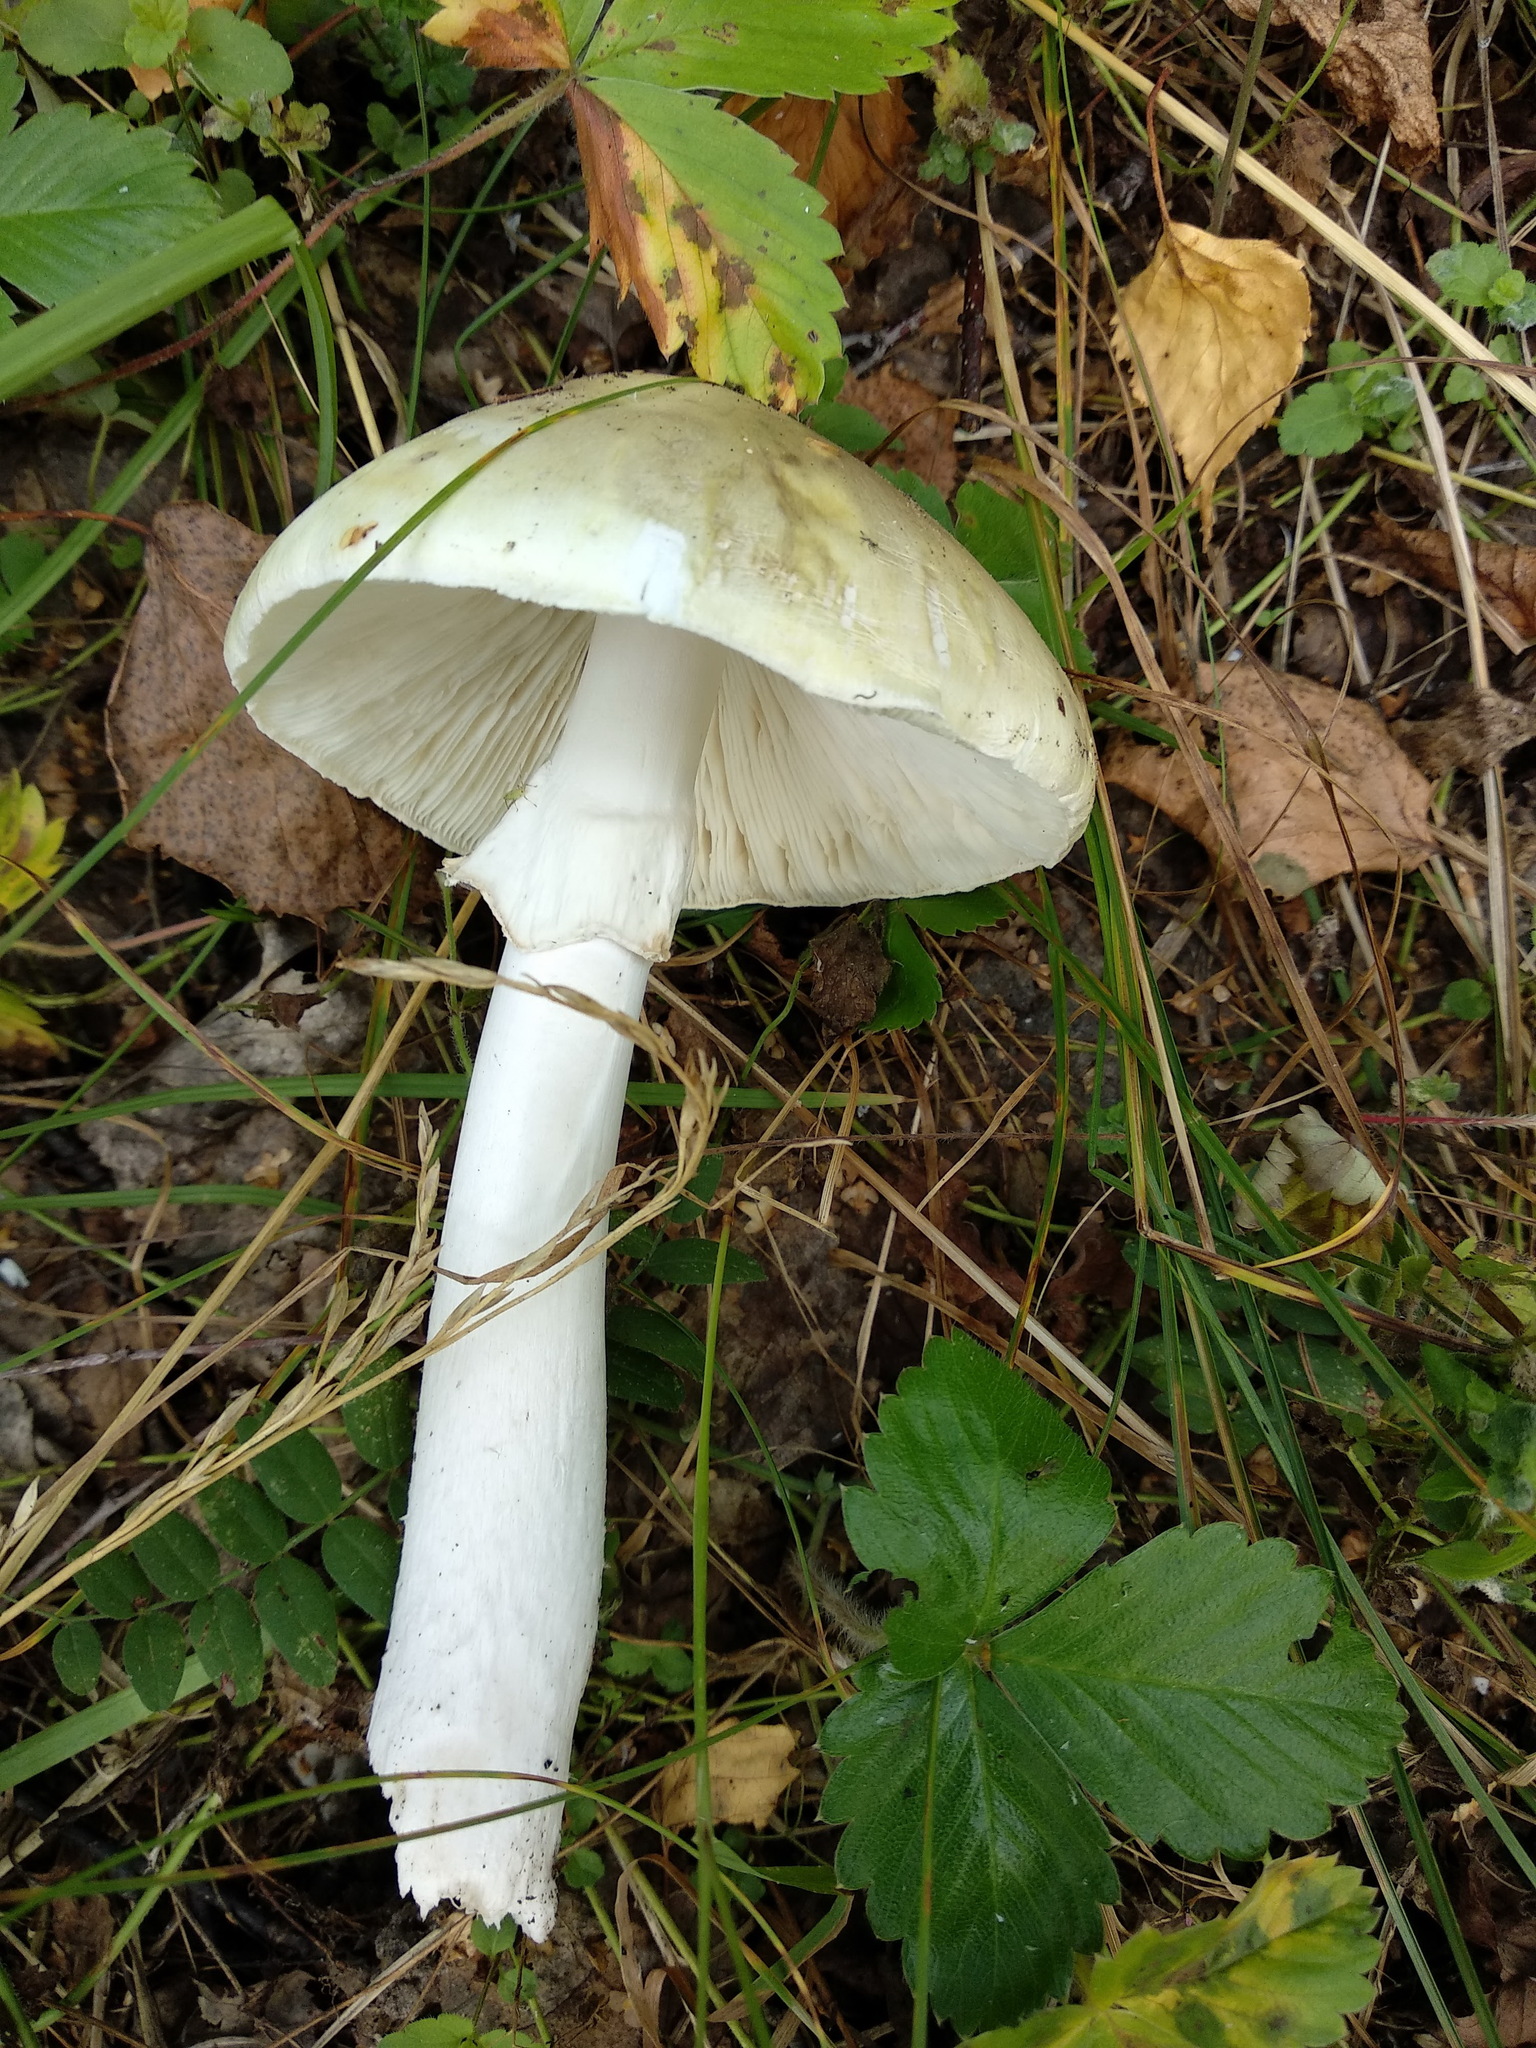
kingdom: Fungi
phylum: Basidiomycota
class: Agaricomycetes
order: Agaricales
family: Amanitaceae
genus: Amanita
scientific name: Amanita phalloides
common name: Death cap
